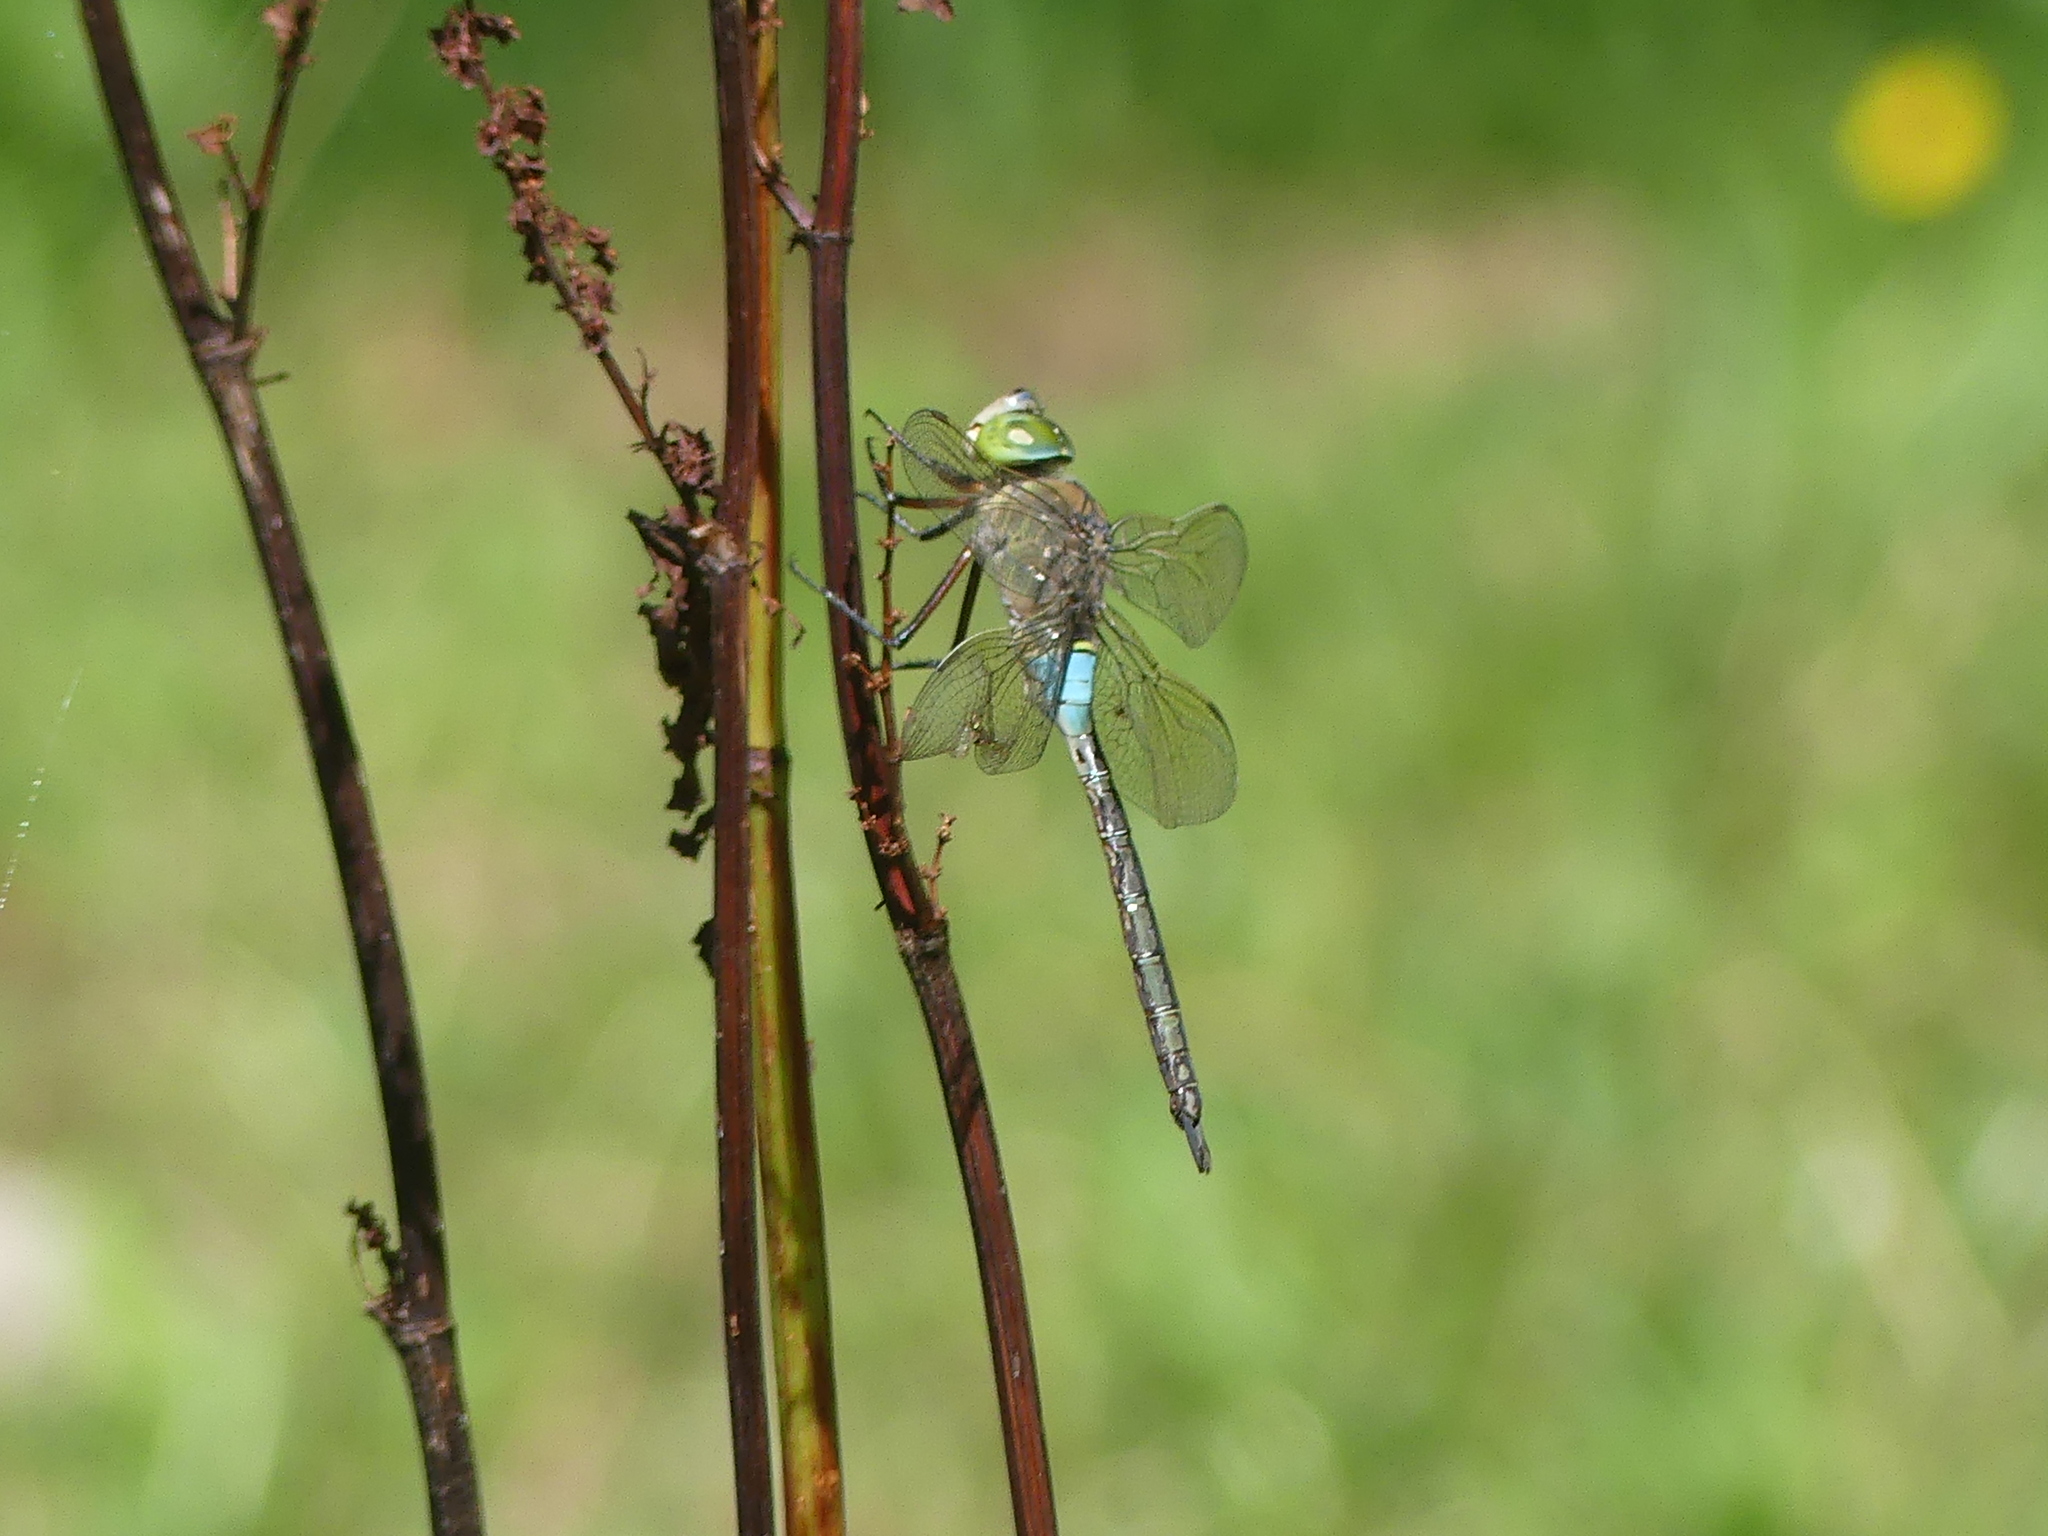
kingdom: Animalia
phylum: Arthropoda
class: Insecta
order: Odonata
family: Aeshnidae
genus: Anax
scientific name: Anax parthenope
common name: Lesser emperor
